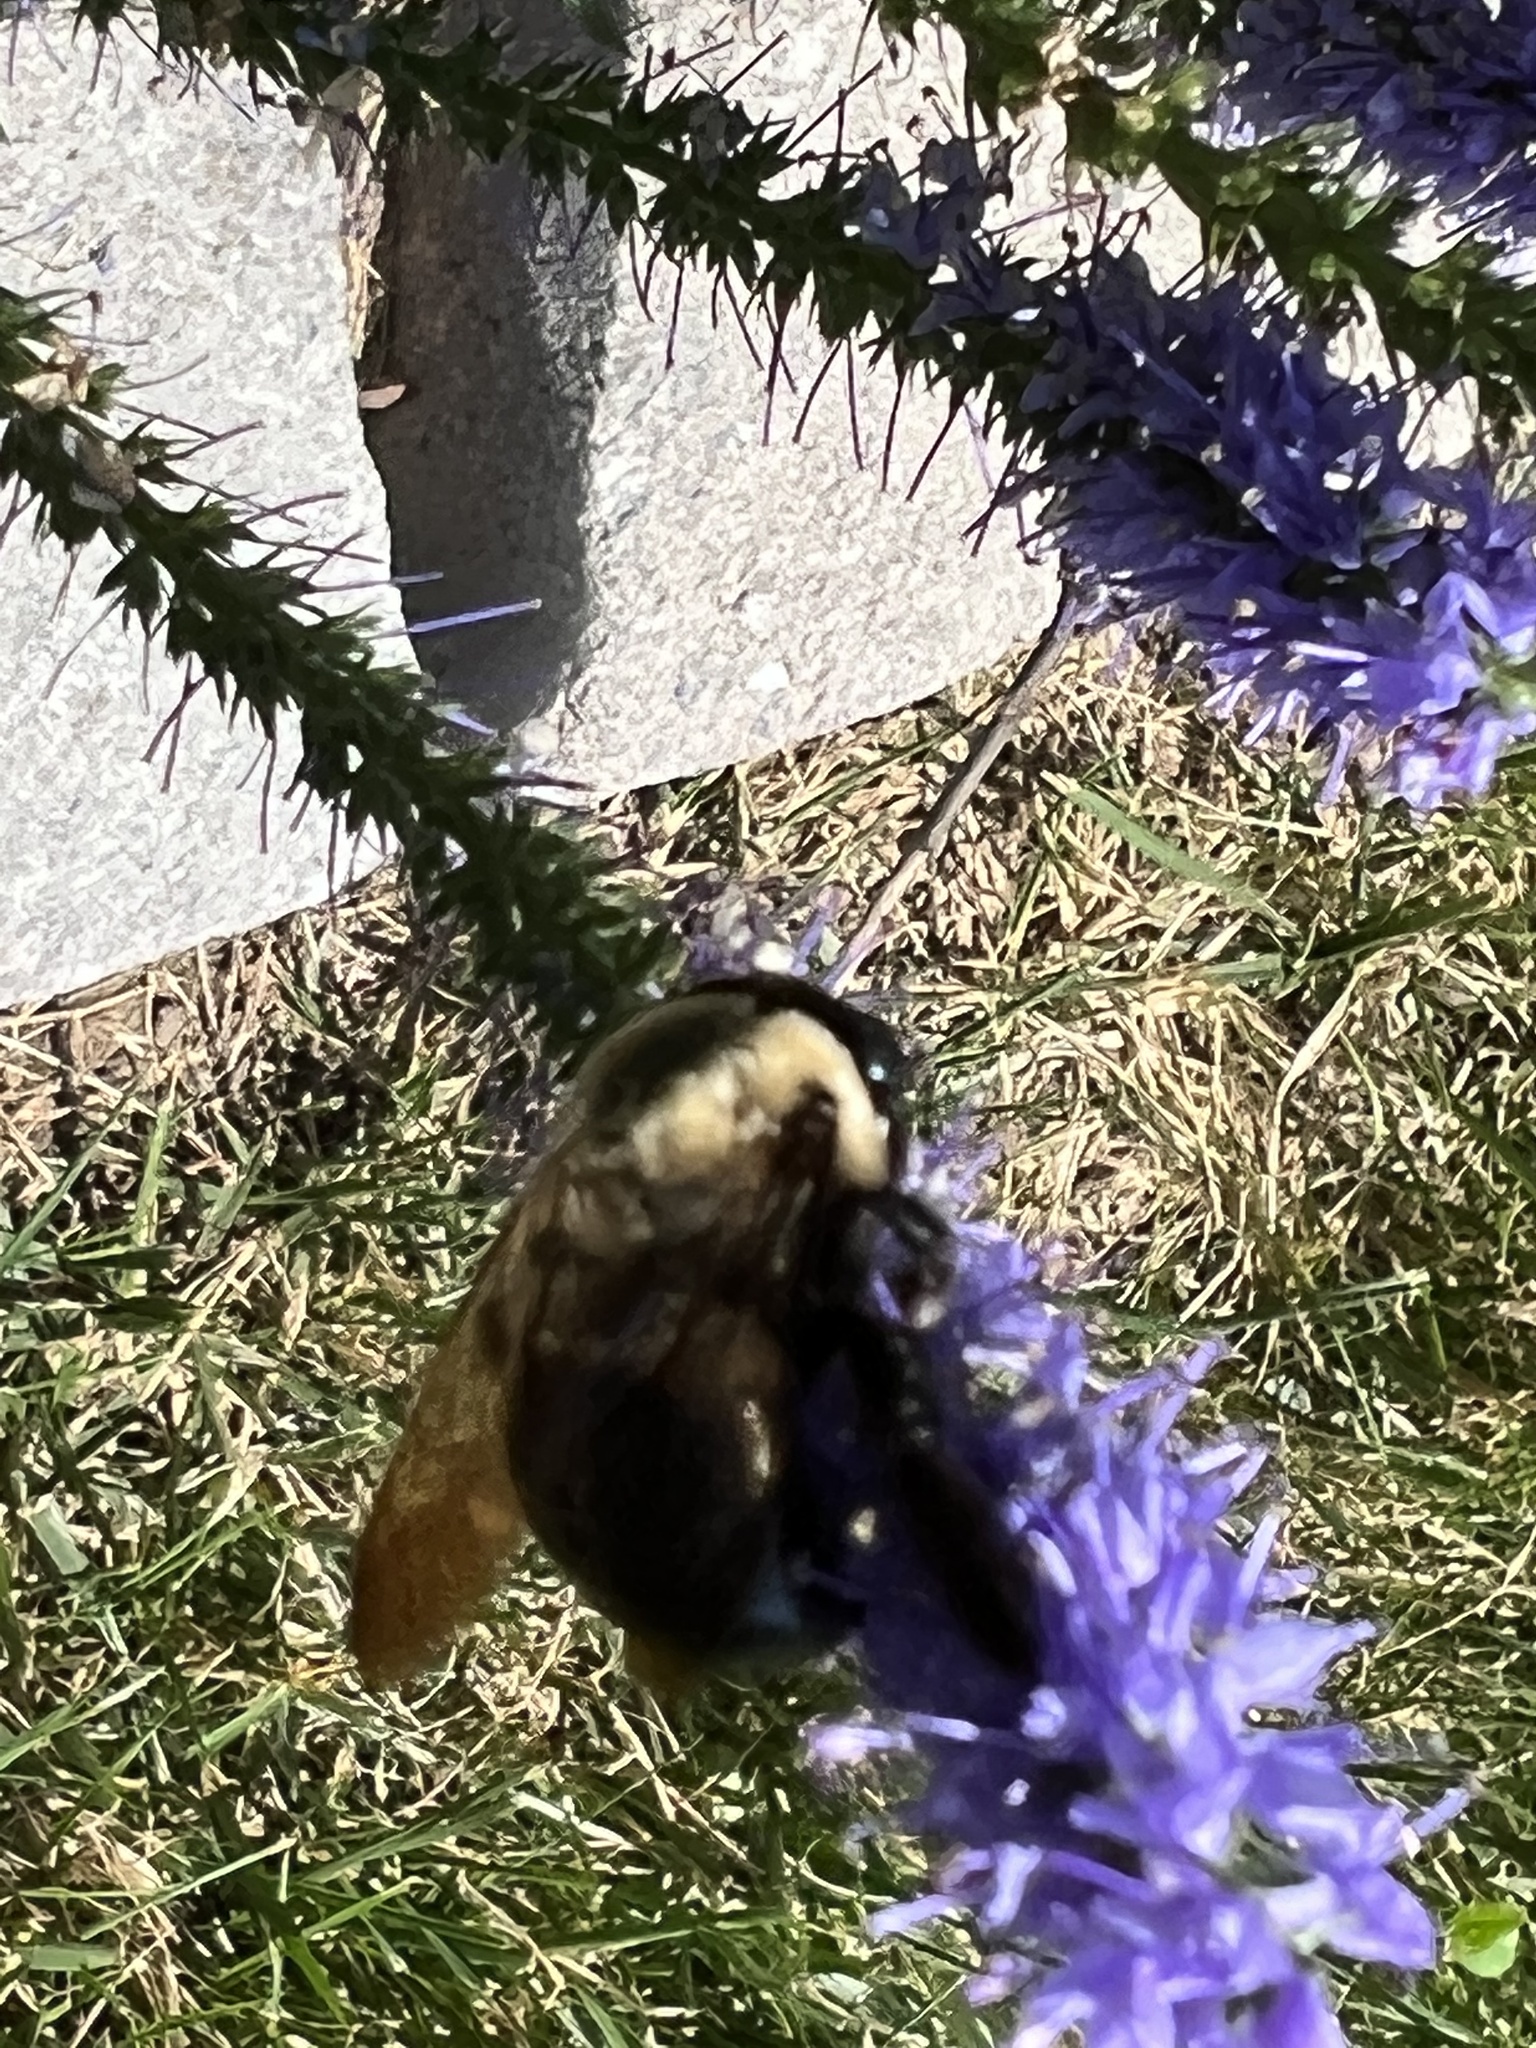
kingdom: Animalia
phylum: Arthropoda
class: Insecta
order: Hymenoptera
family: Apidae
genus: Xylocopa
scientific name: Xylocopa virginica
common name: Carpenter bee
